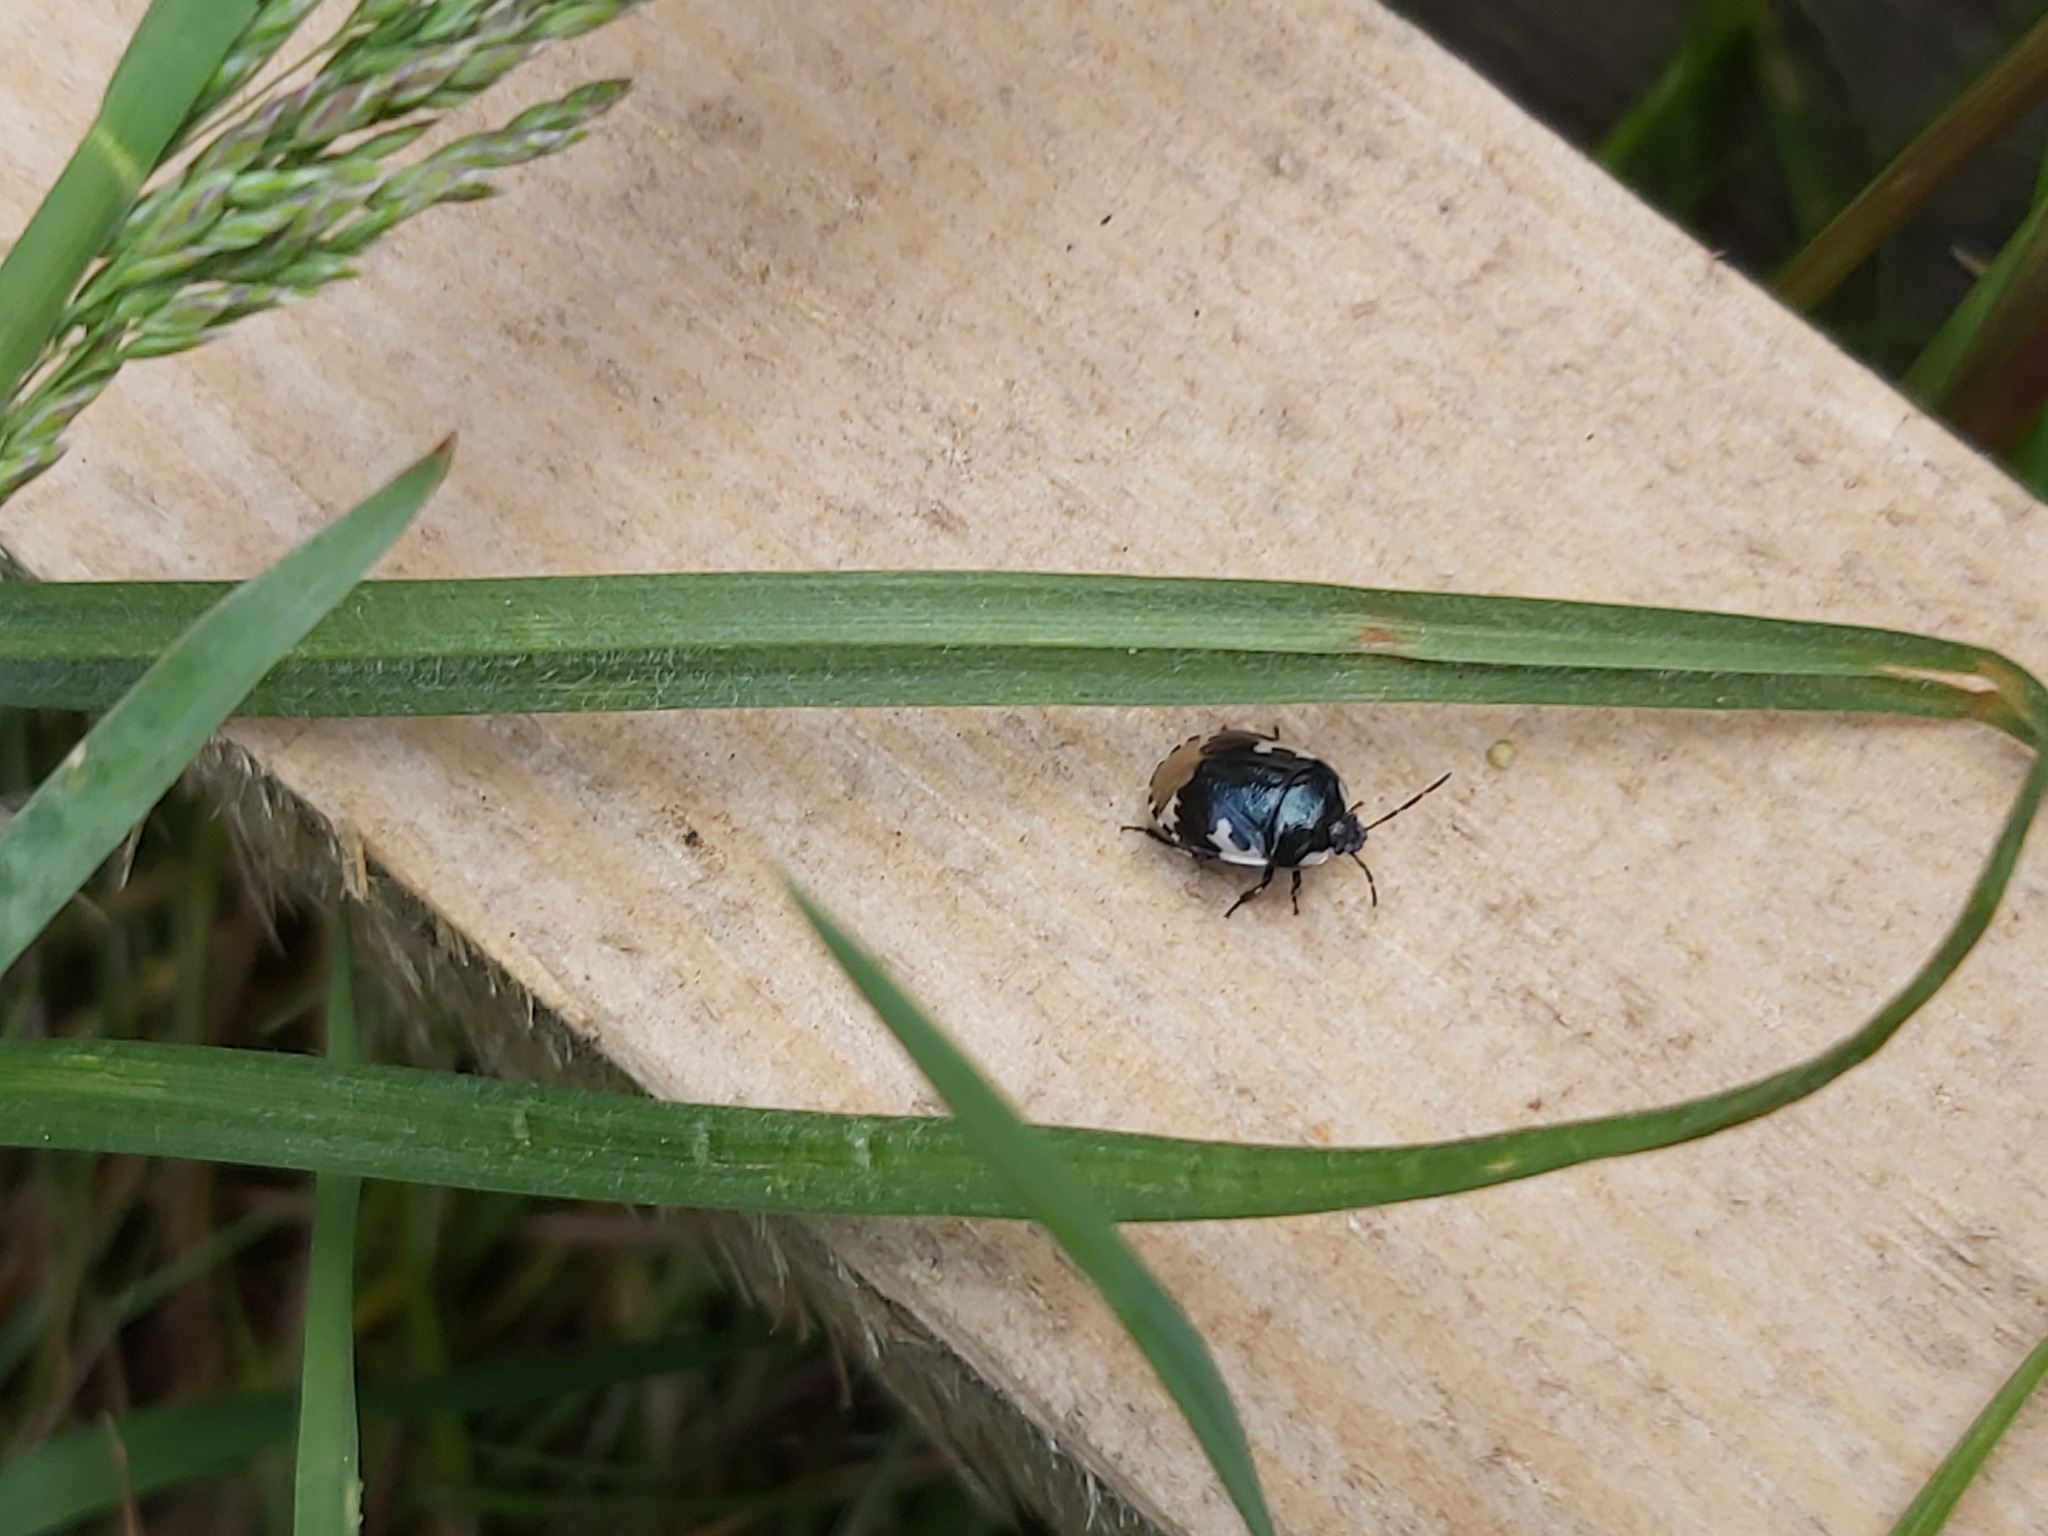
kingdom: Animalia
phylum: Arthropoda
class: Insecta
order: Hemiptera
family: Cydnidae
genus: Tritomegas
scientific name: Tritomegas bicolor
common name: Pied shieldbug
